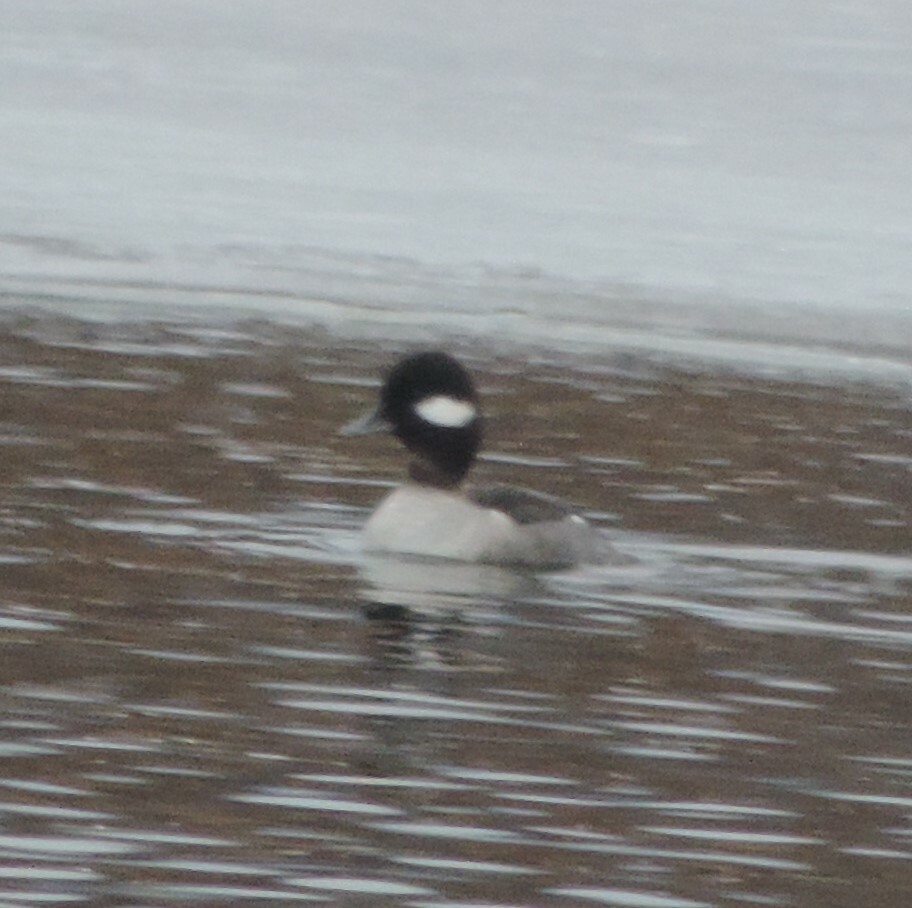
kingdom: Animalia
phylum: Chordata
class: Aves
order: Anseriformes
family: Anatidae
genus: Bucephala
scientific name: Bucephala albeola
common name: Bufflehead
